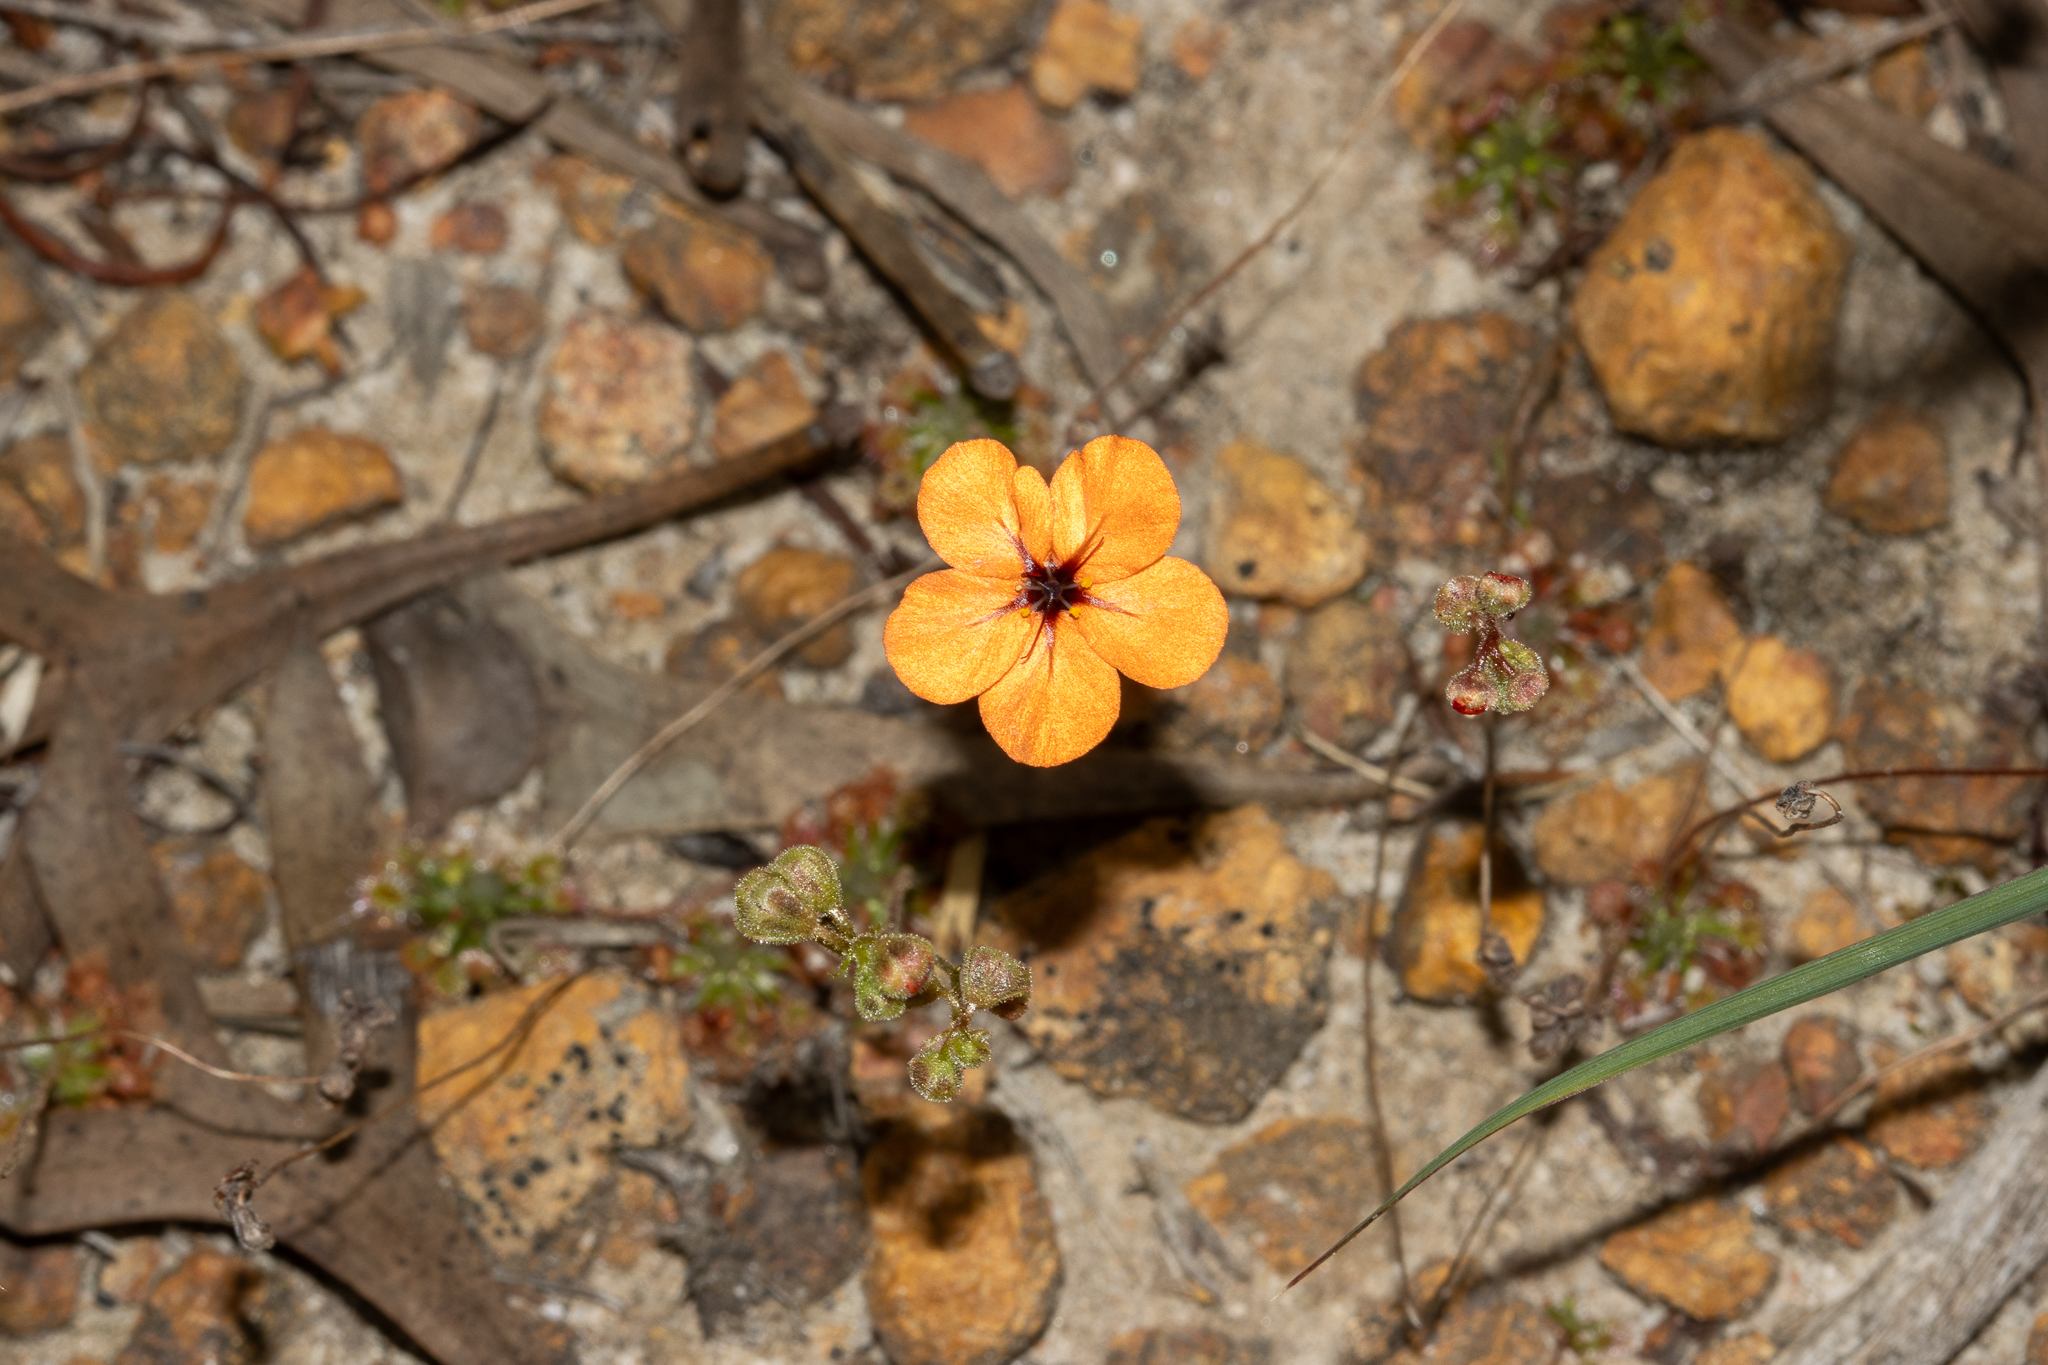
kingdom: Plantae
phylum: Tracheophyta
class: Magnoliopsida
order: Caryophyllales
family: Droseraceae
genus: Drosera
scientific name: Drosera coomallo
